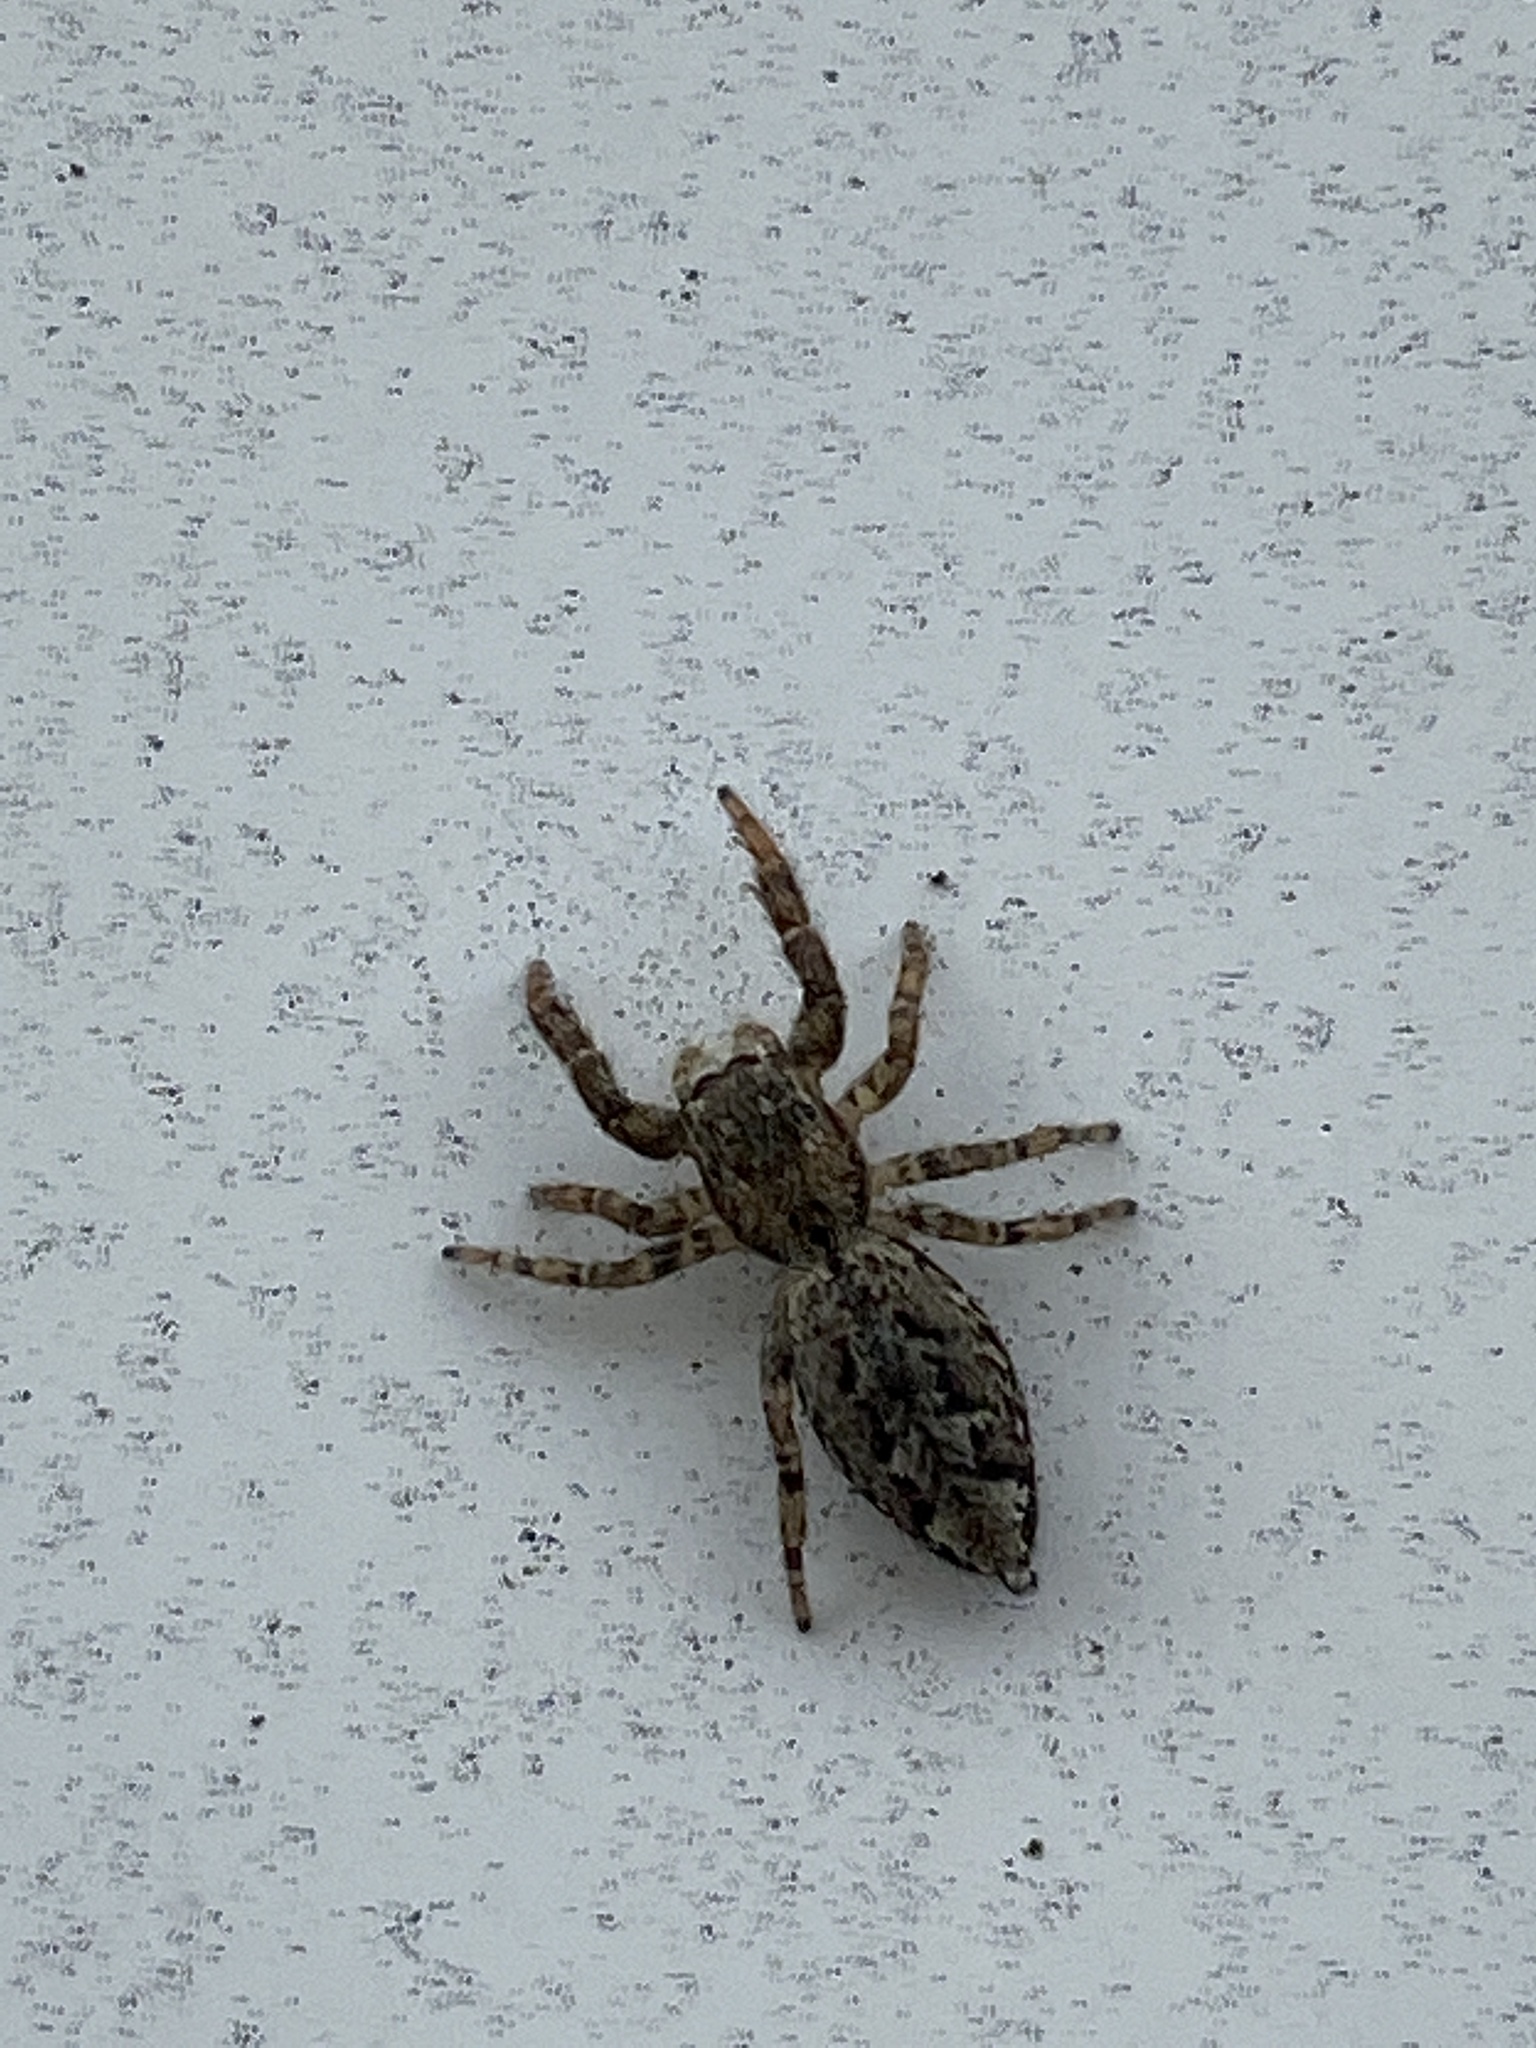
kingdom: Animalia
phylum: Arthropoda
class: Arachnida
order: Araneae
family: Salticidae
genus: Marpissa
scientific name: Marpissa muscosa
